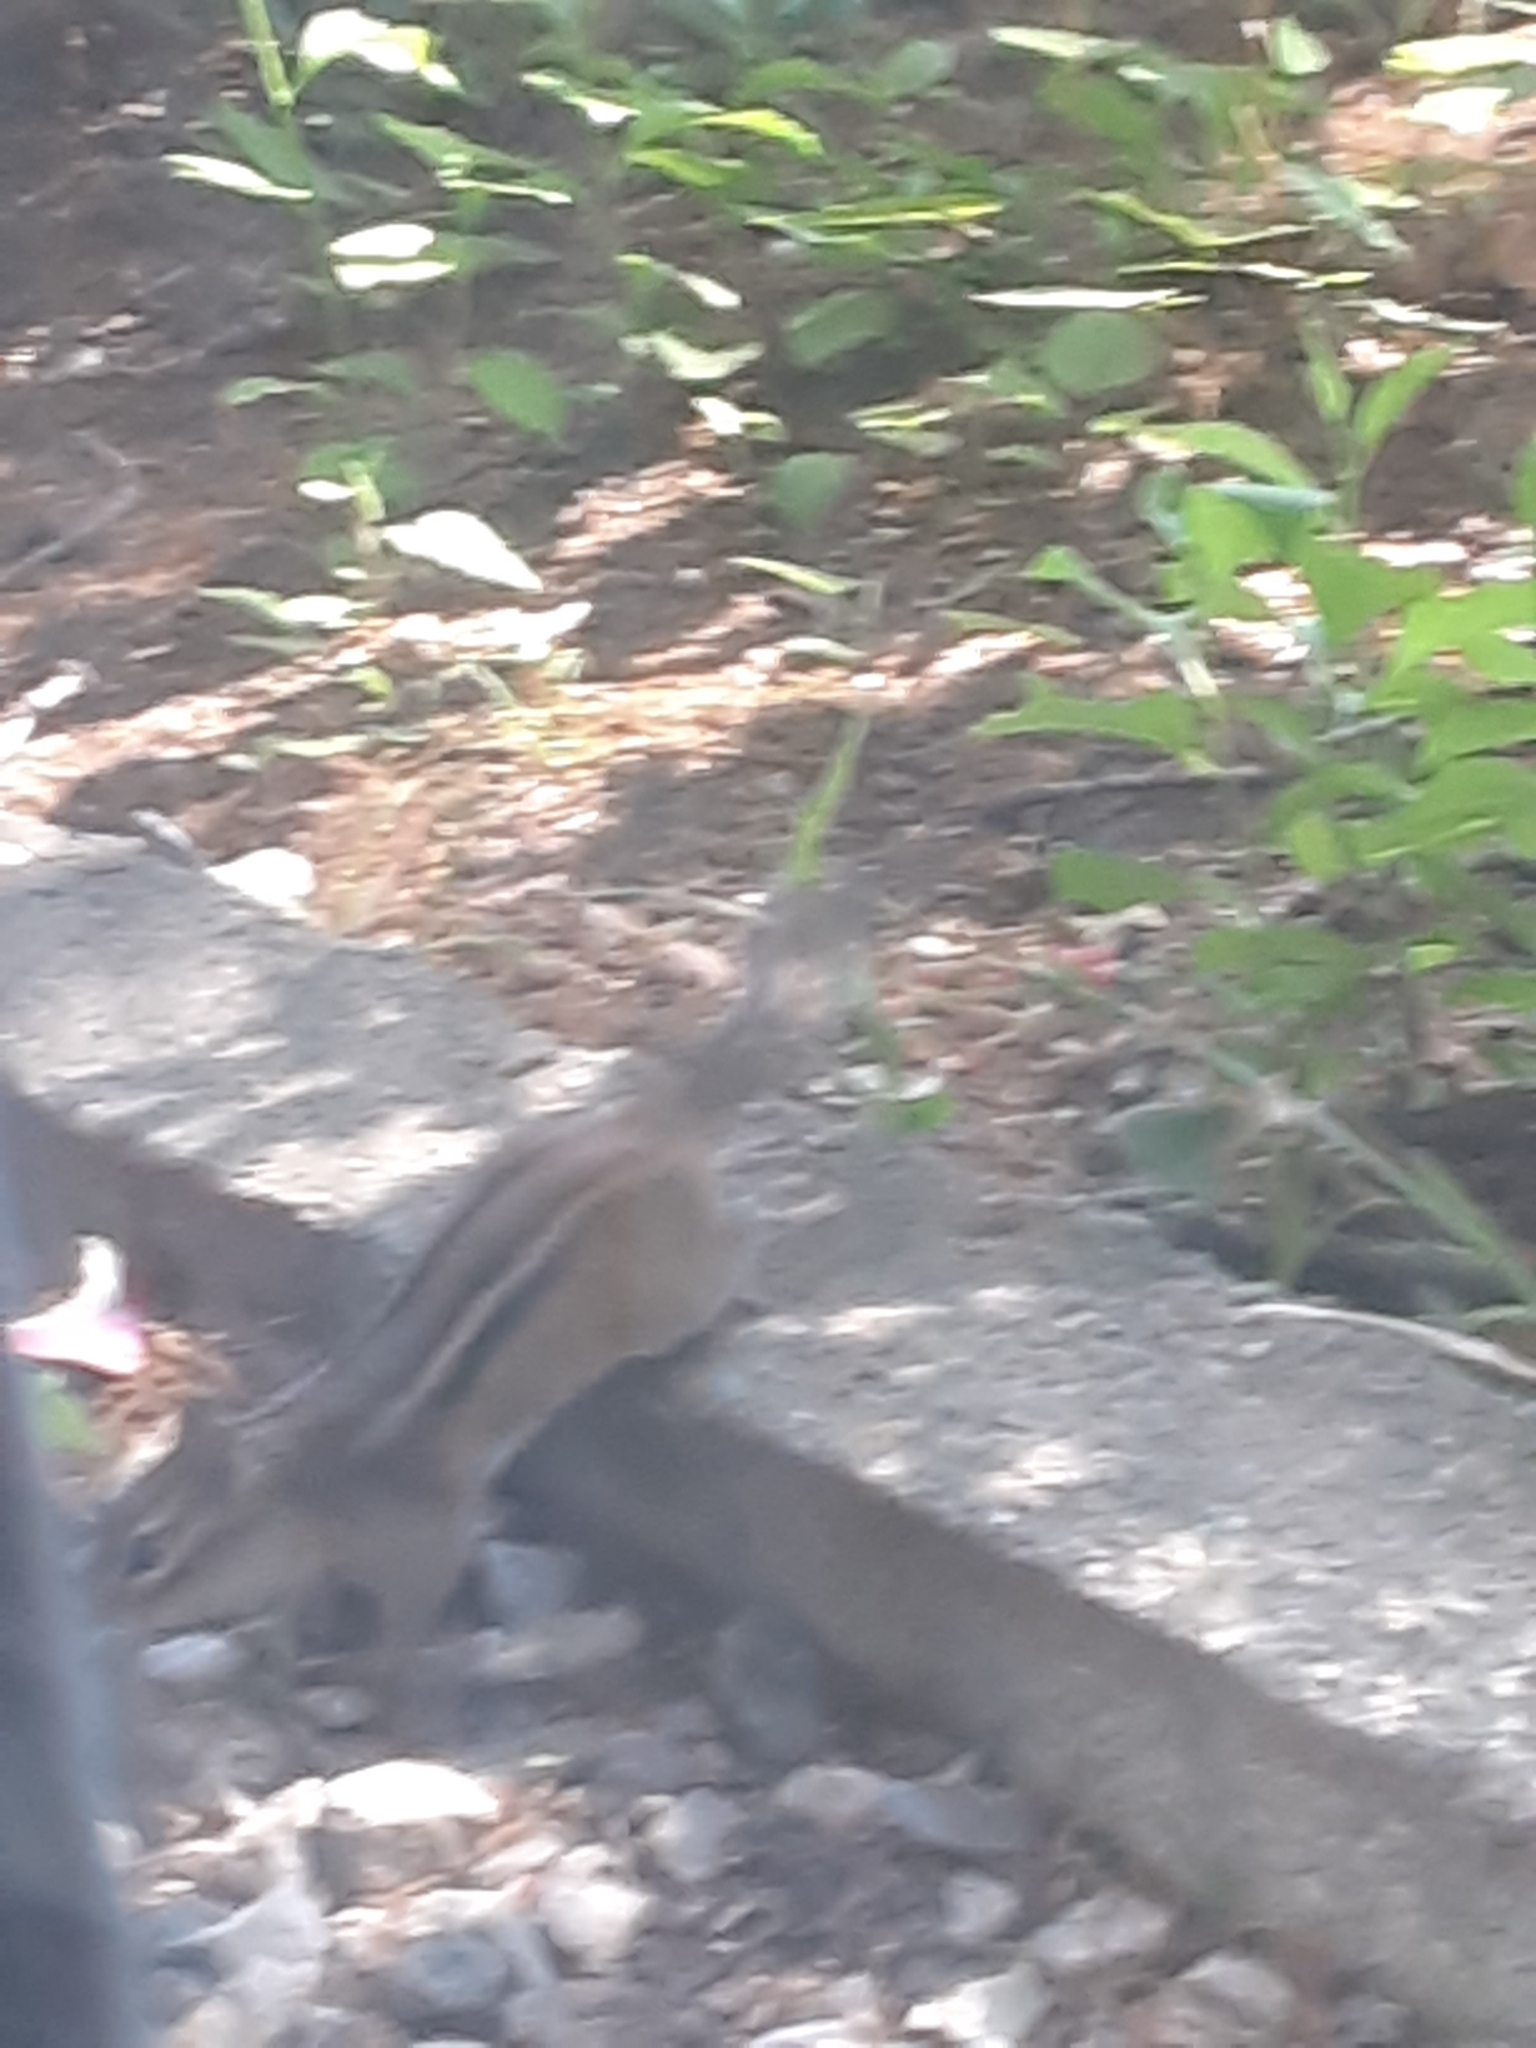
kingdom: Animalia
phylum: Chordata
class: Mammalia
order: Rodentia
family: Sciuridae
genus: Tamias
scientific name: Tamias striatus
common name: Eastern chipmunk
